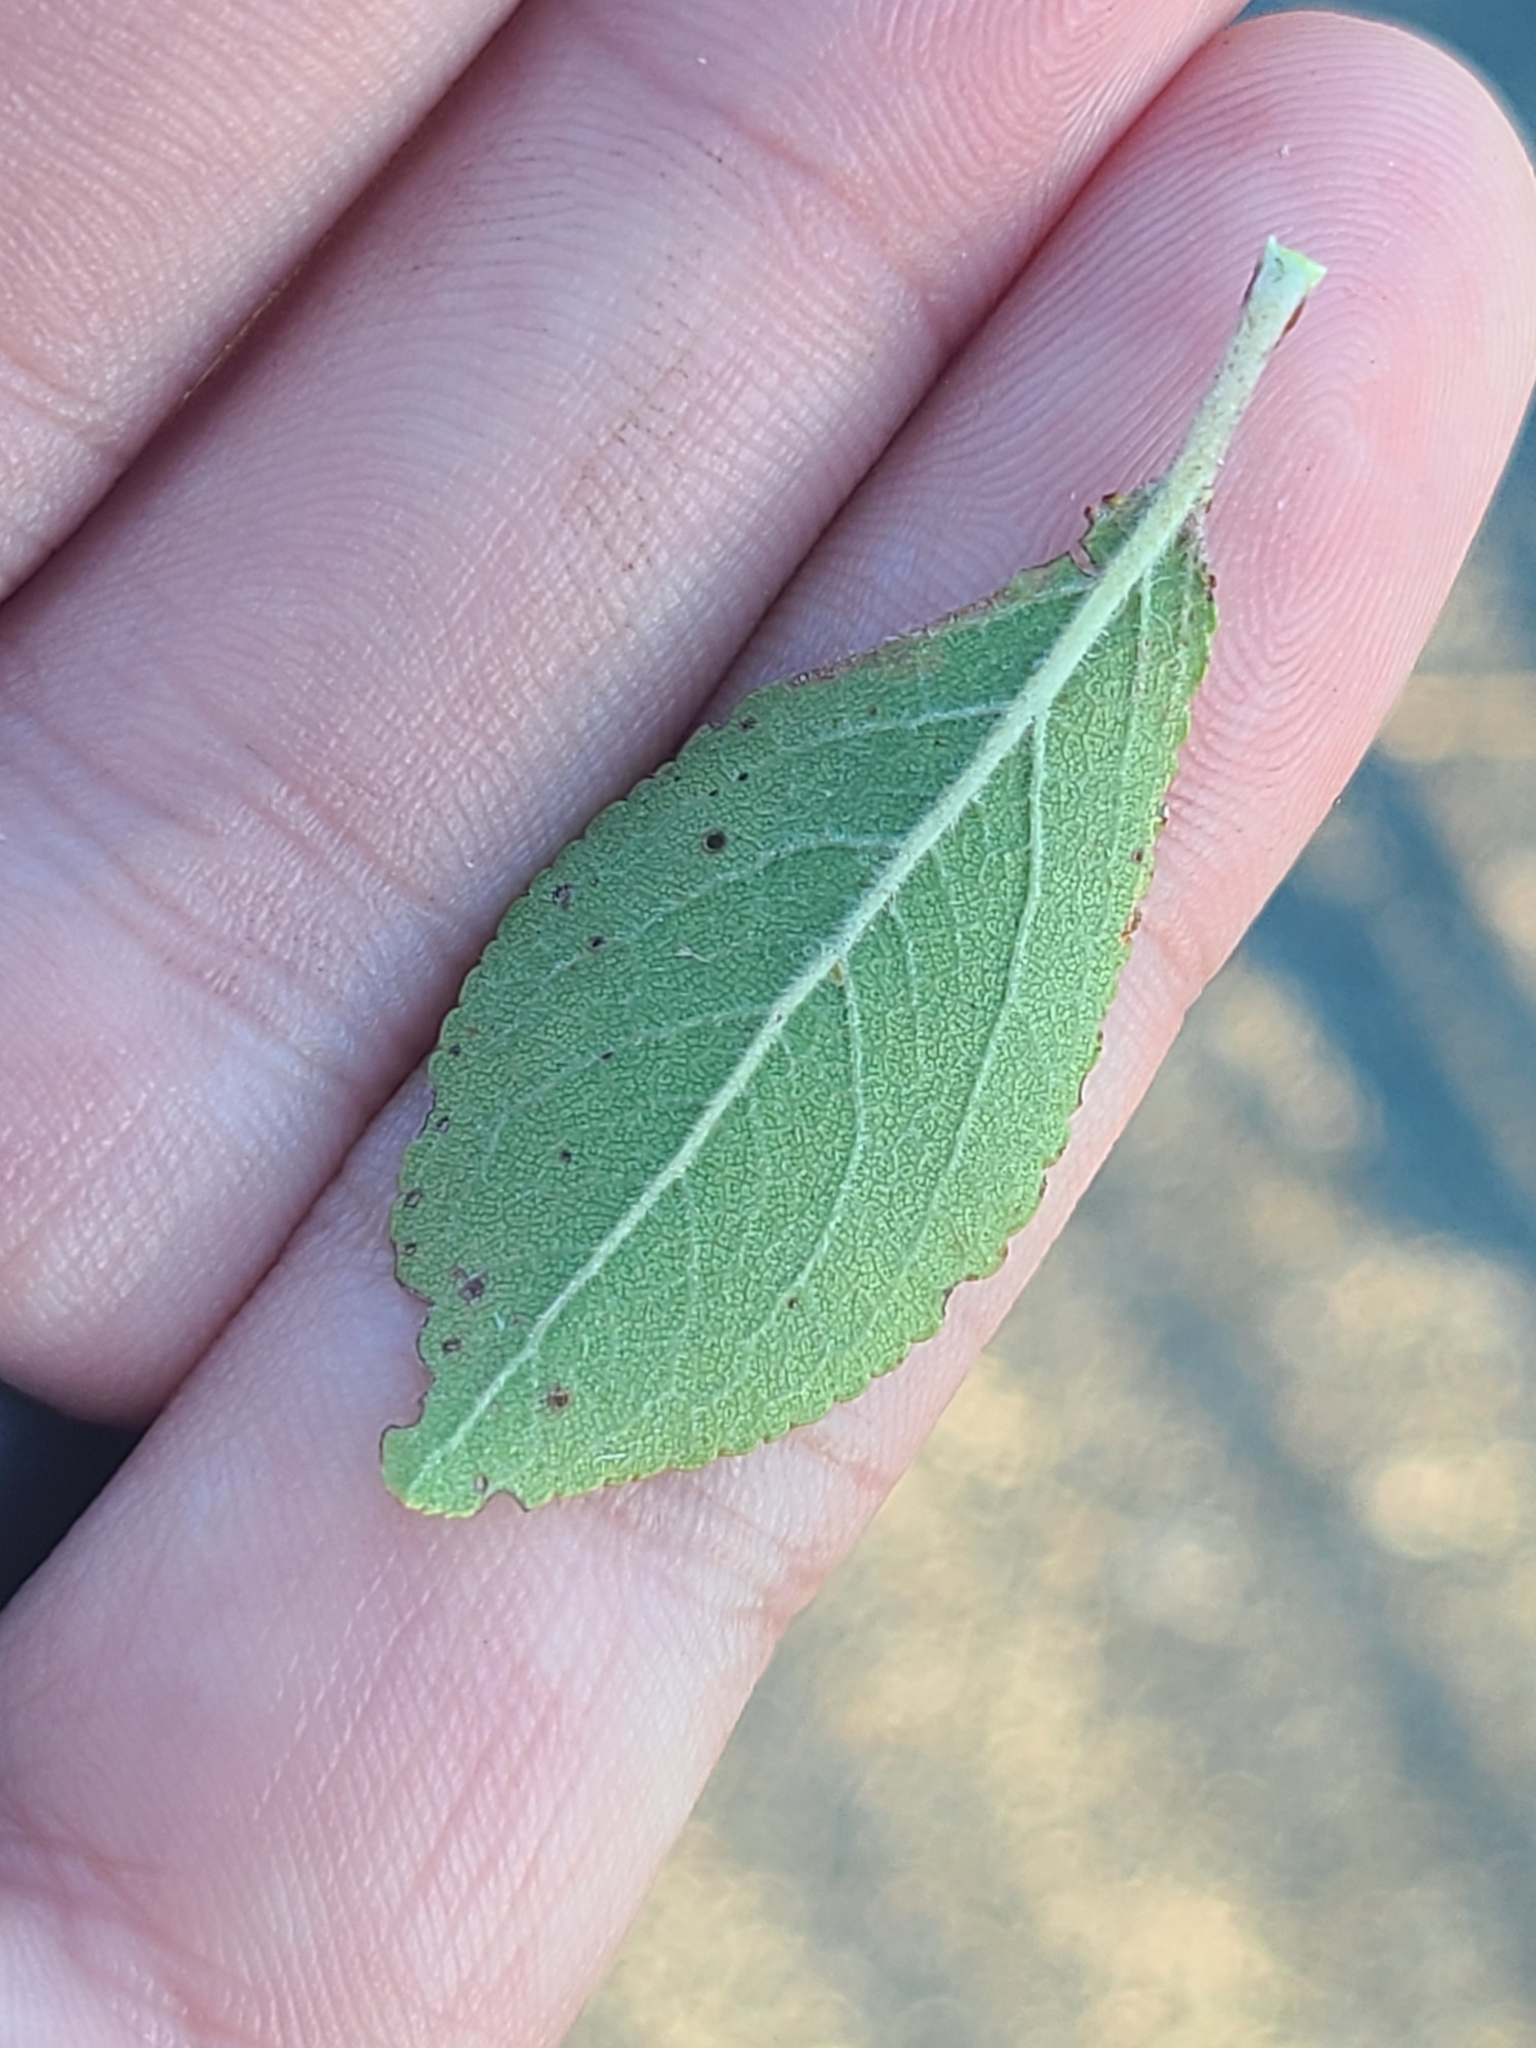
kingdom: Plantae
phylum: Tracheophyta
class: Magnoliopsida
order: Rosales
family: Rosaceae
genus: Prunus
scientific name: Prunus maritima
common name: Beach plum
